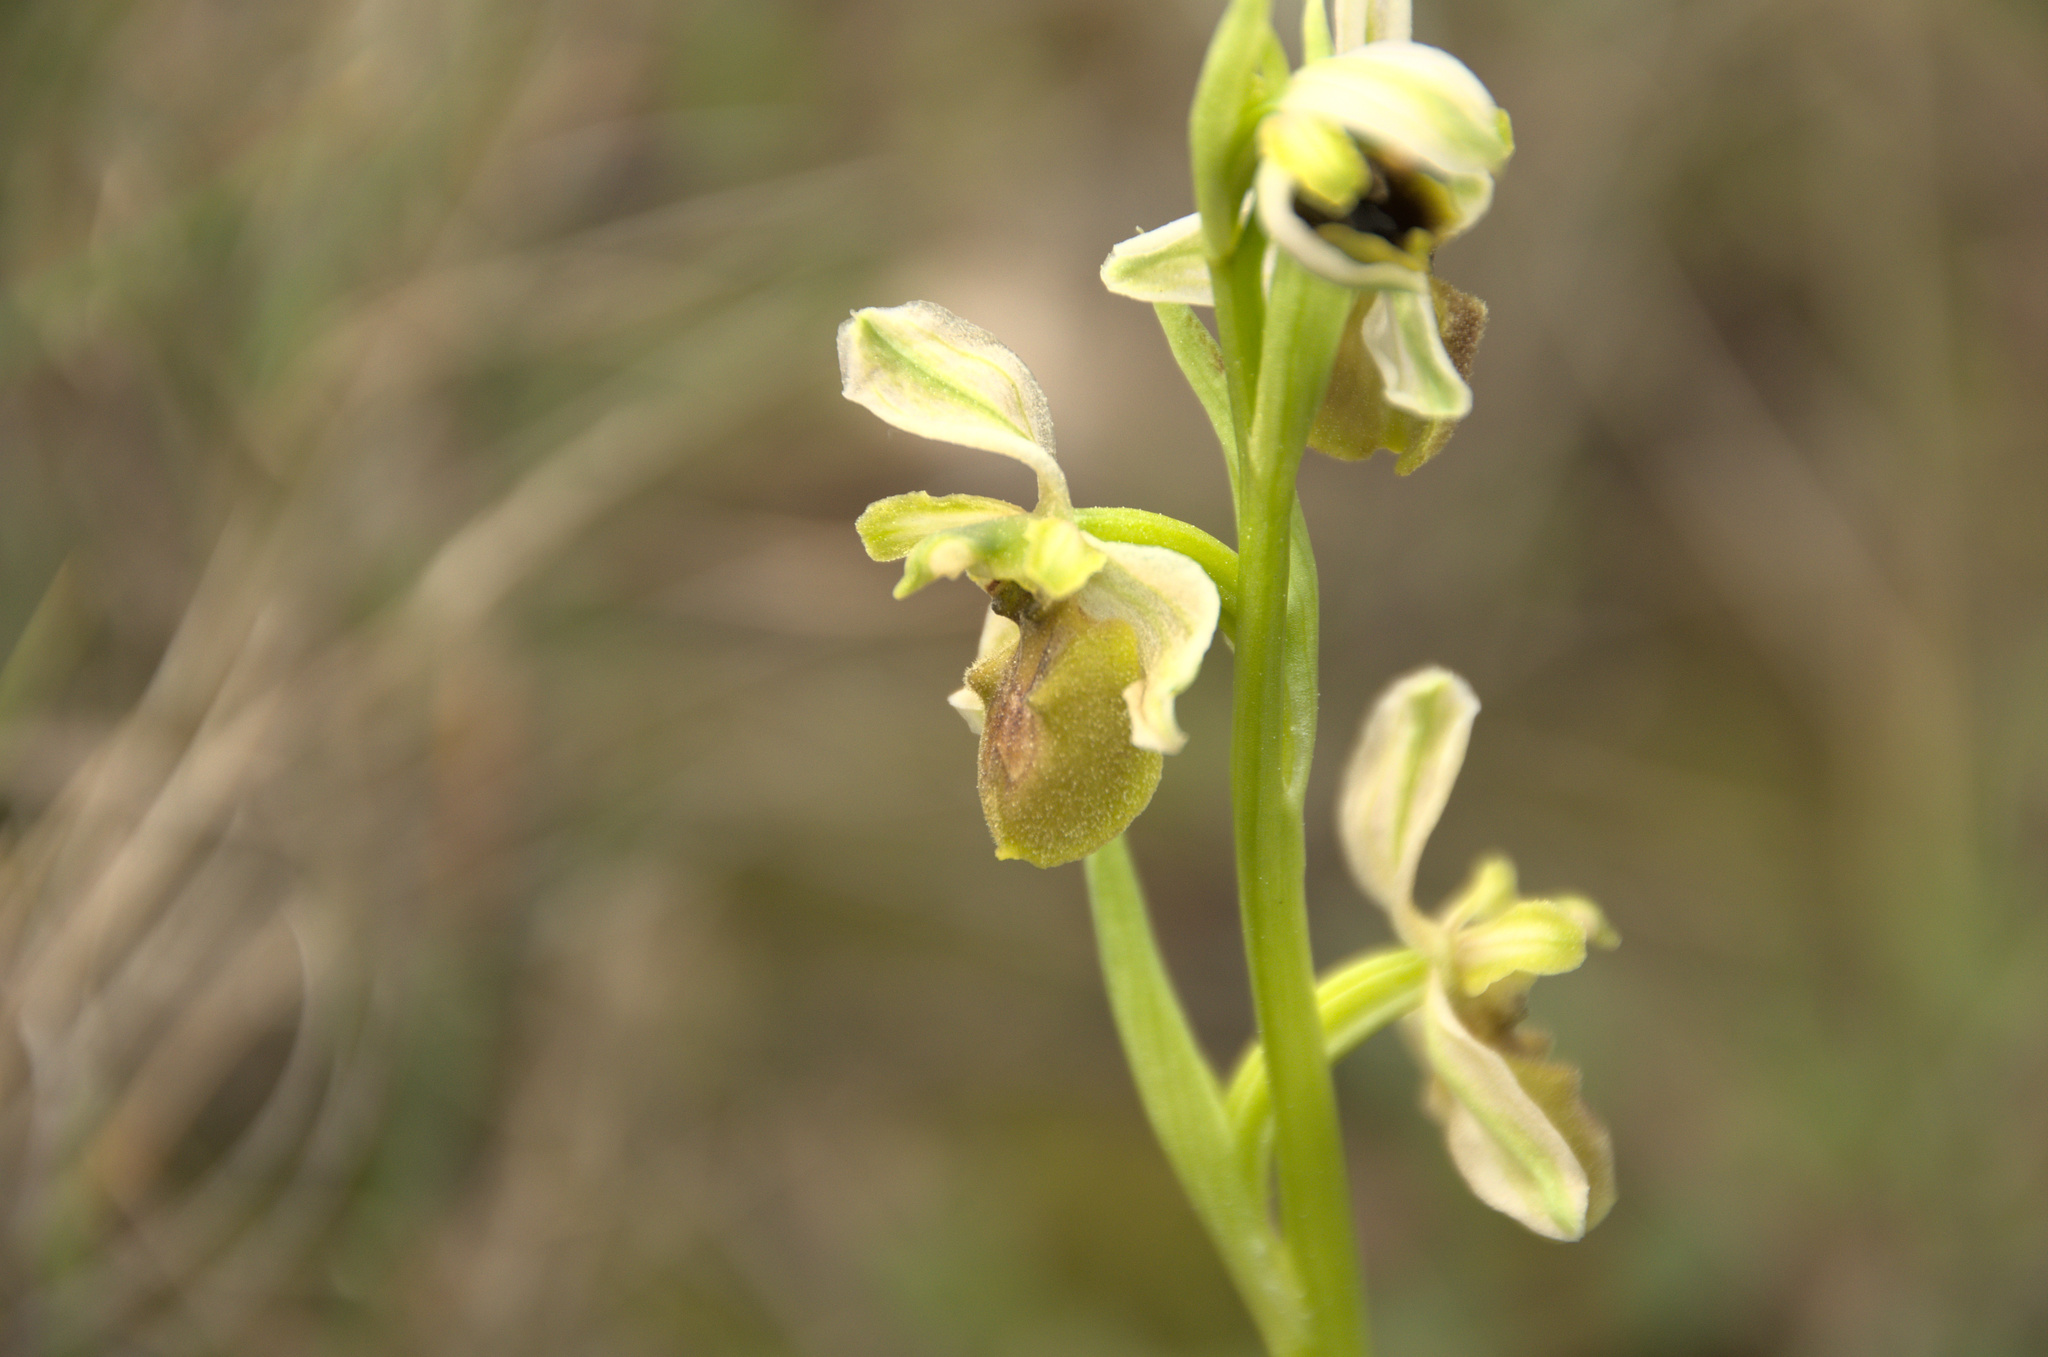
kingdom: Plantae
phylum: Tracheophyta
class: Liliopsida
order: Asparagales
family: Orchidaceae
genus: Ophrys
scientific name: Ophrys arachnitiformis
